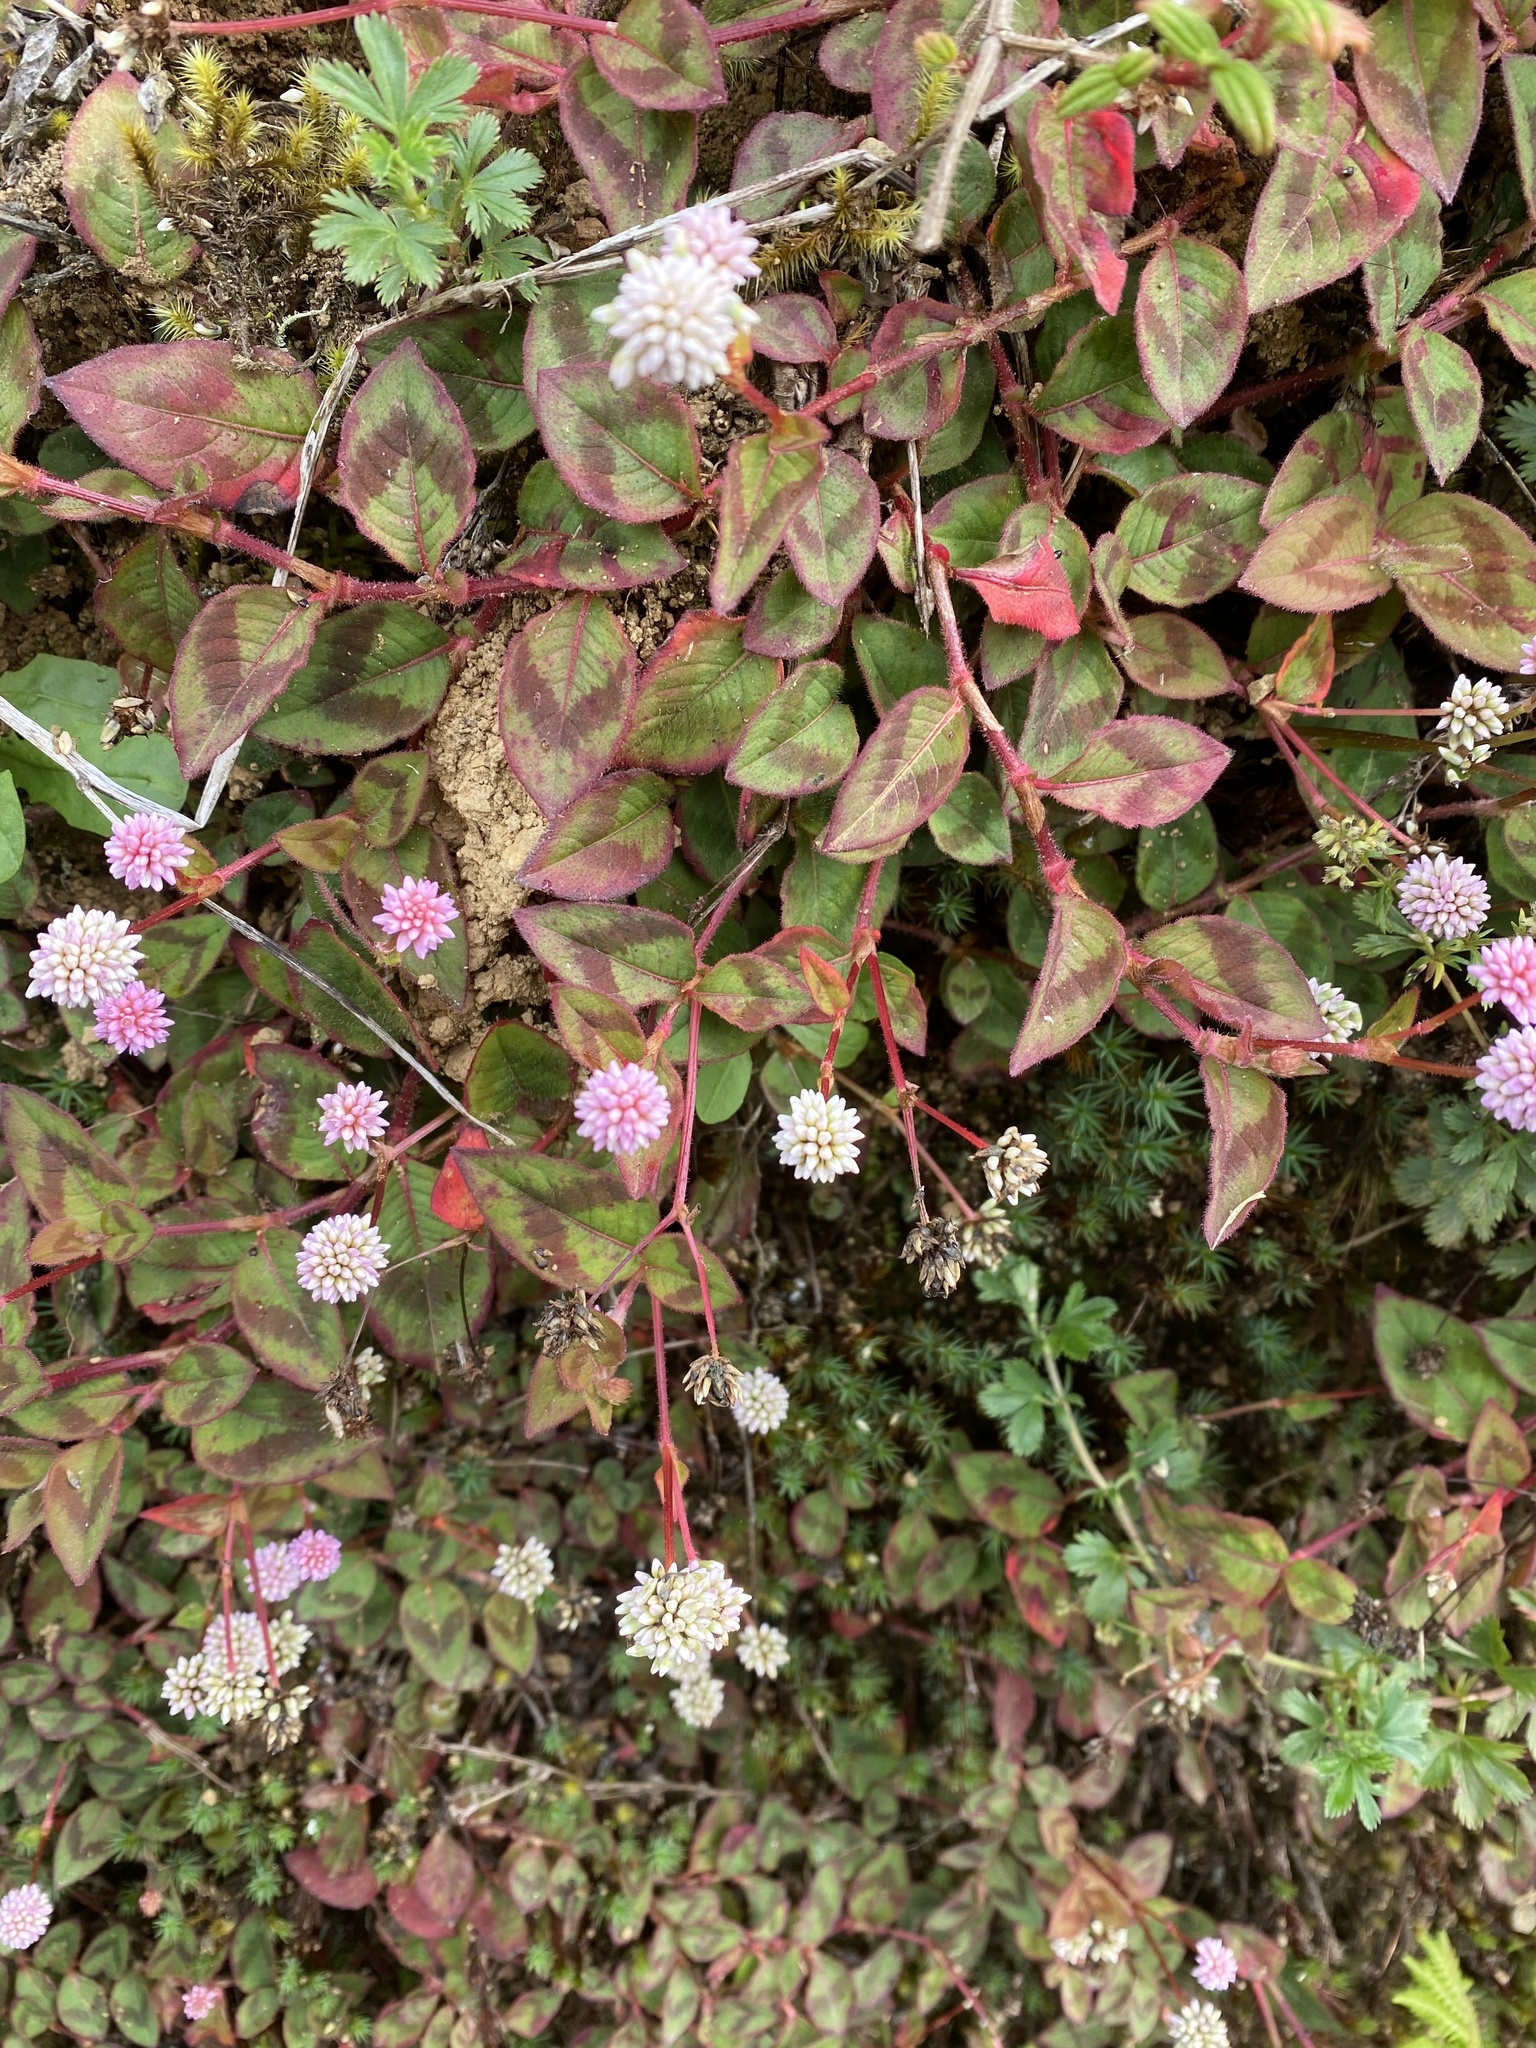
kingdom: Plantae
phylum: Tracheophyta
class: Magnoliopsida
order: Caryophyllales
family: Polygonaceae
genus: Persicaria
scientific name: Persicaria capitata
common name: Pinkhead smartweed
